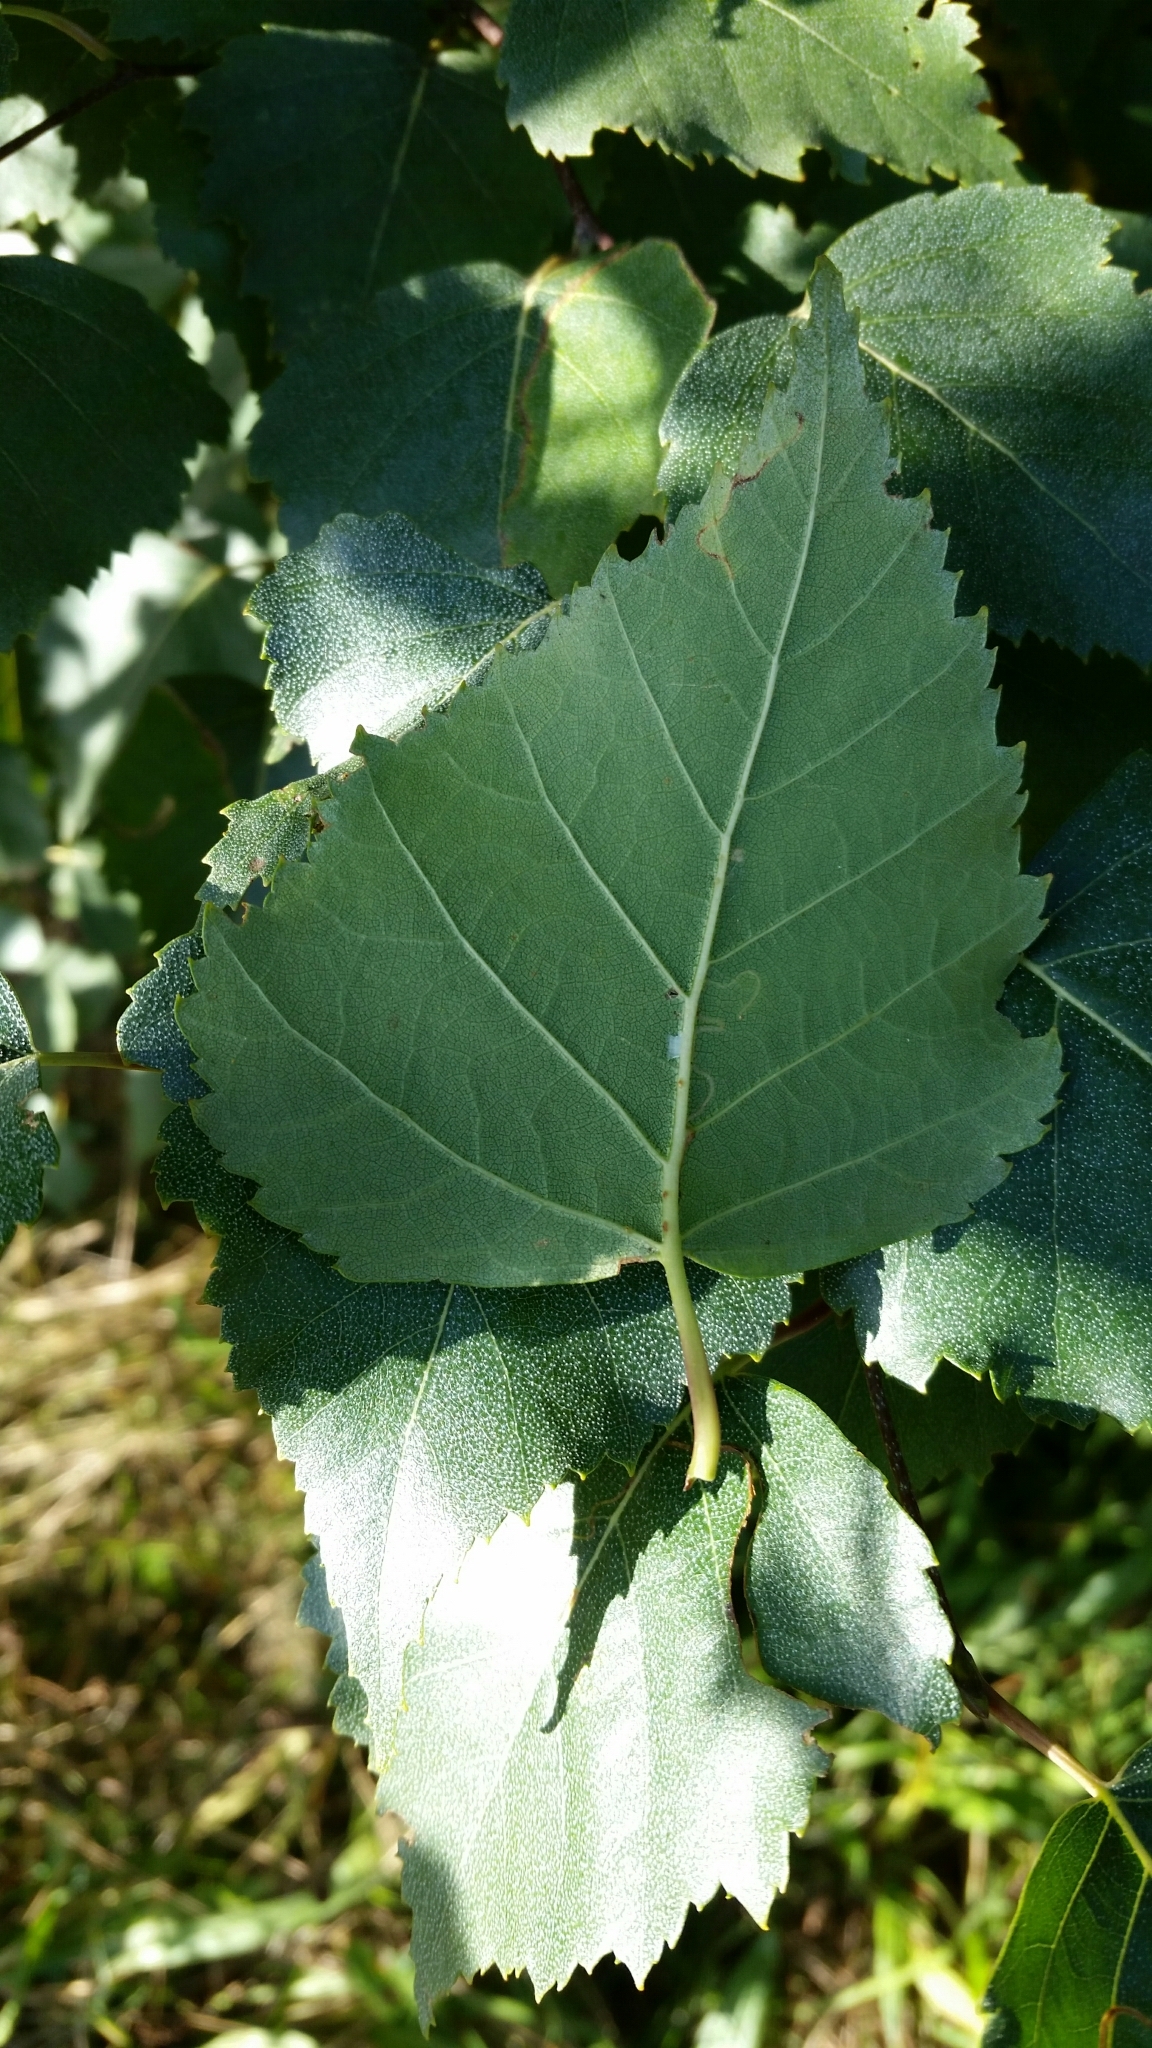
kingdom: Plantae
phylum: Tracheophyta
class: Magnoliopsida
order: Fagales
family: Betulaceae
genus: Betula
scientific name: Betula pendula
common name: Silver birch
